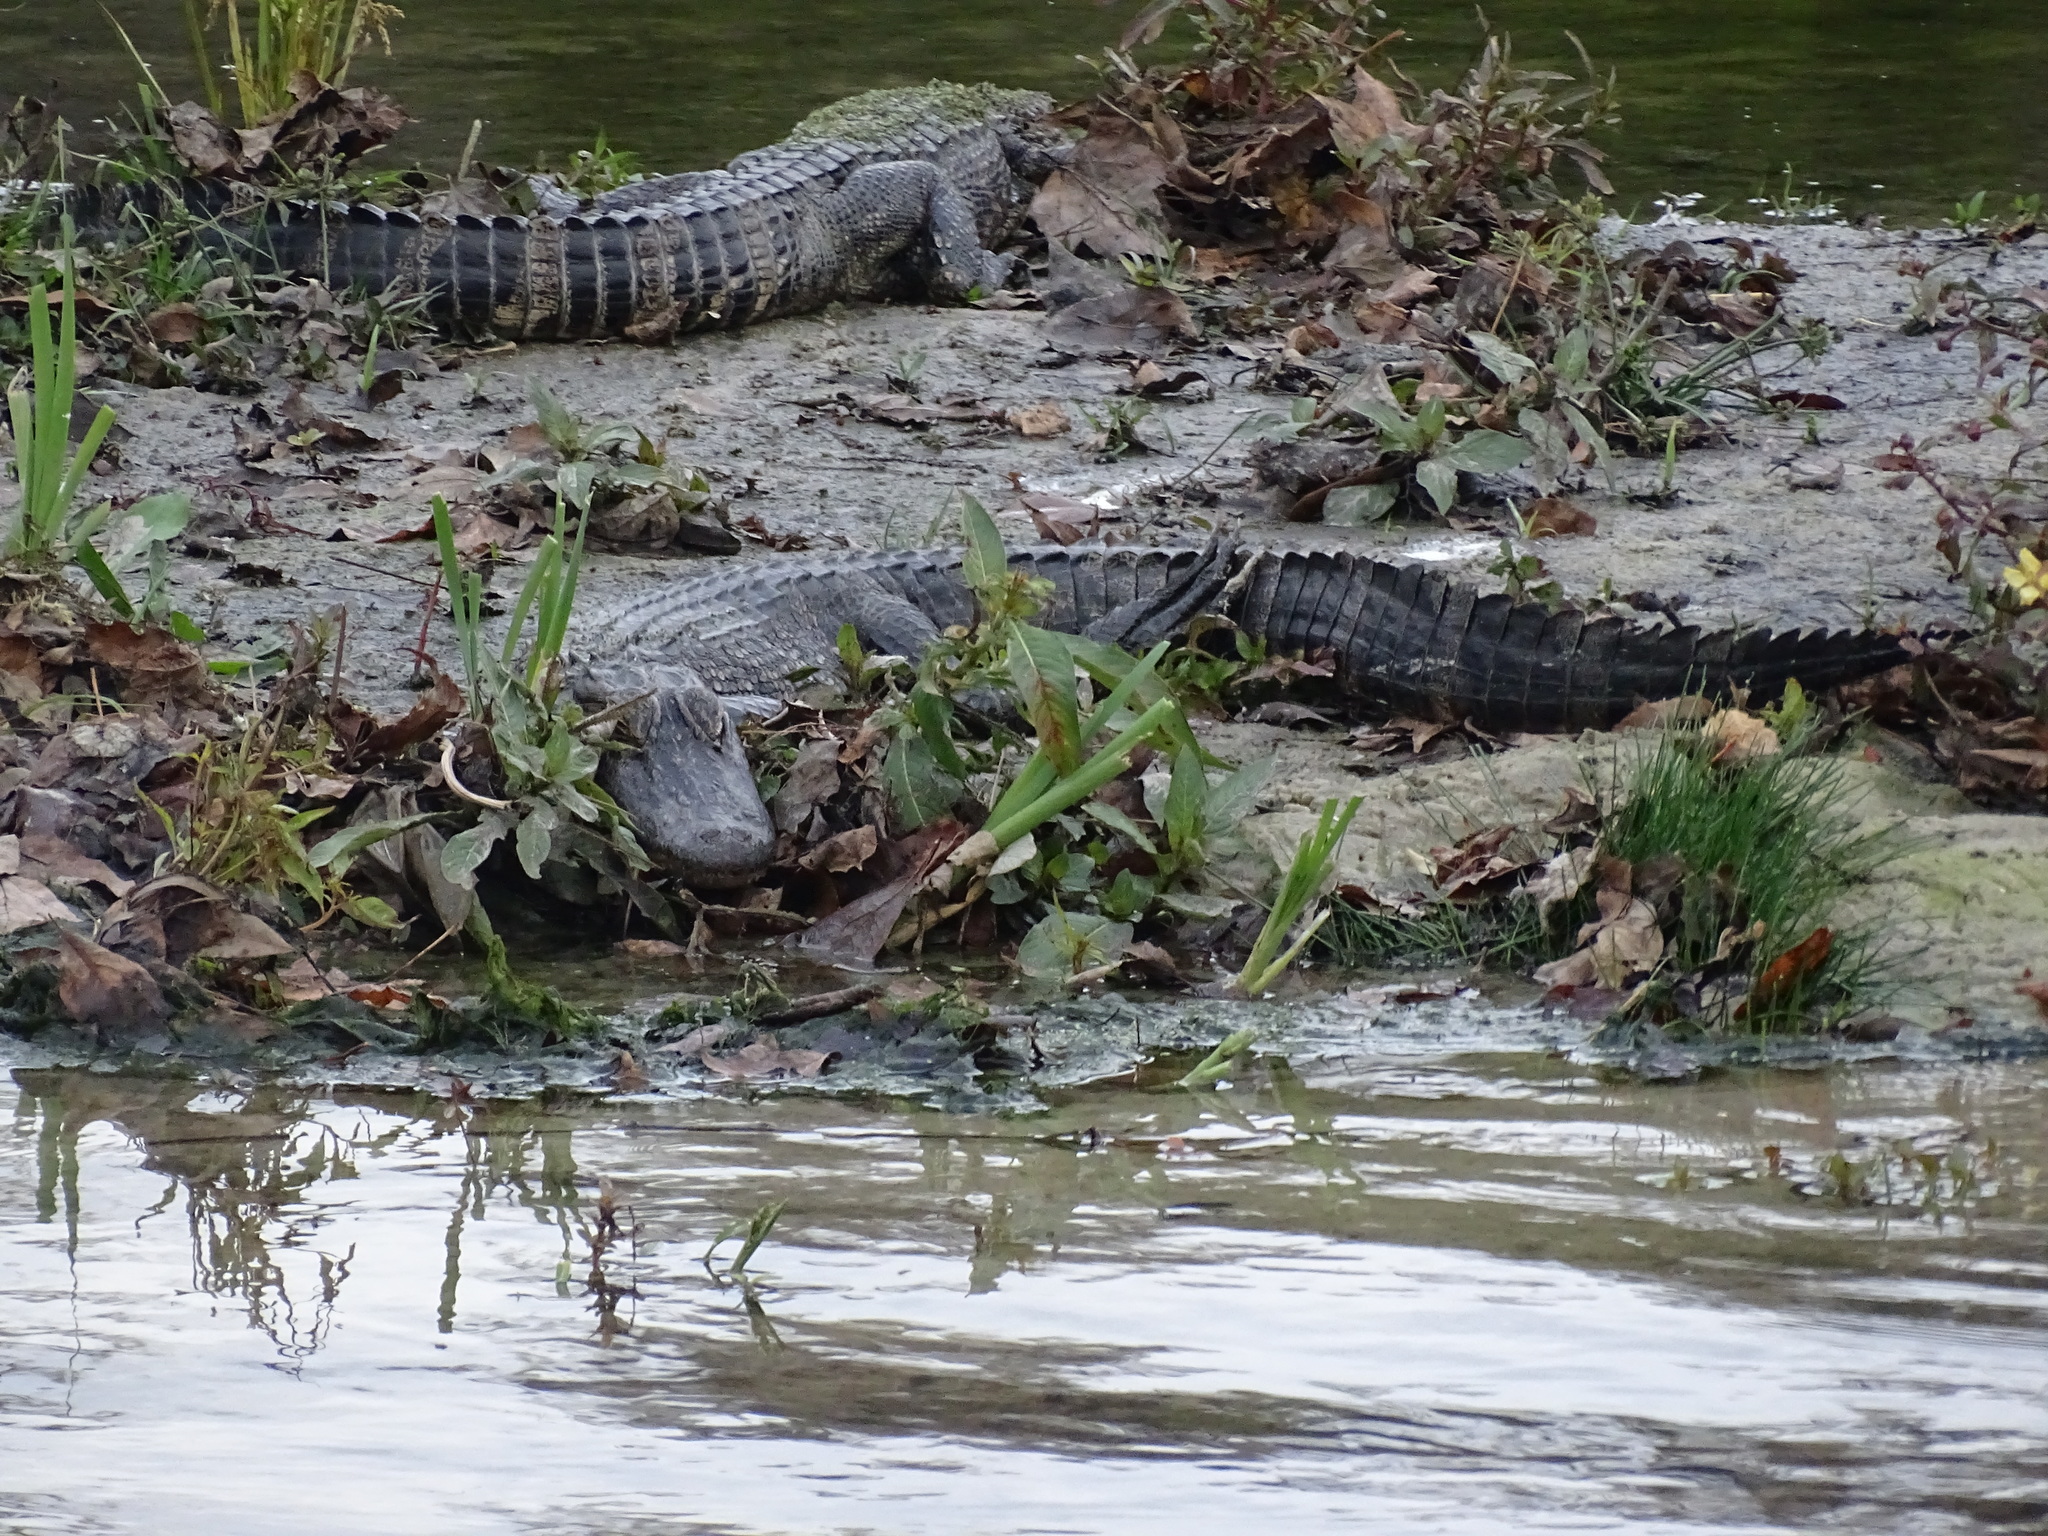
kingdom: Animalia
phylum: Chordata
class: Crocodylia
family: Alligatoridae
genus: Alligator
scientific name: Alligator mississippiensis
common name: American alligator
